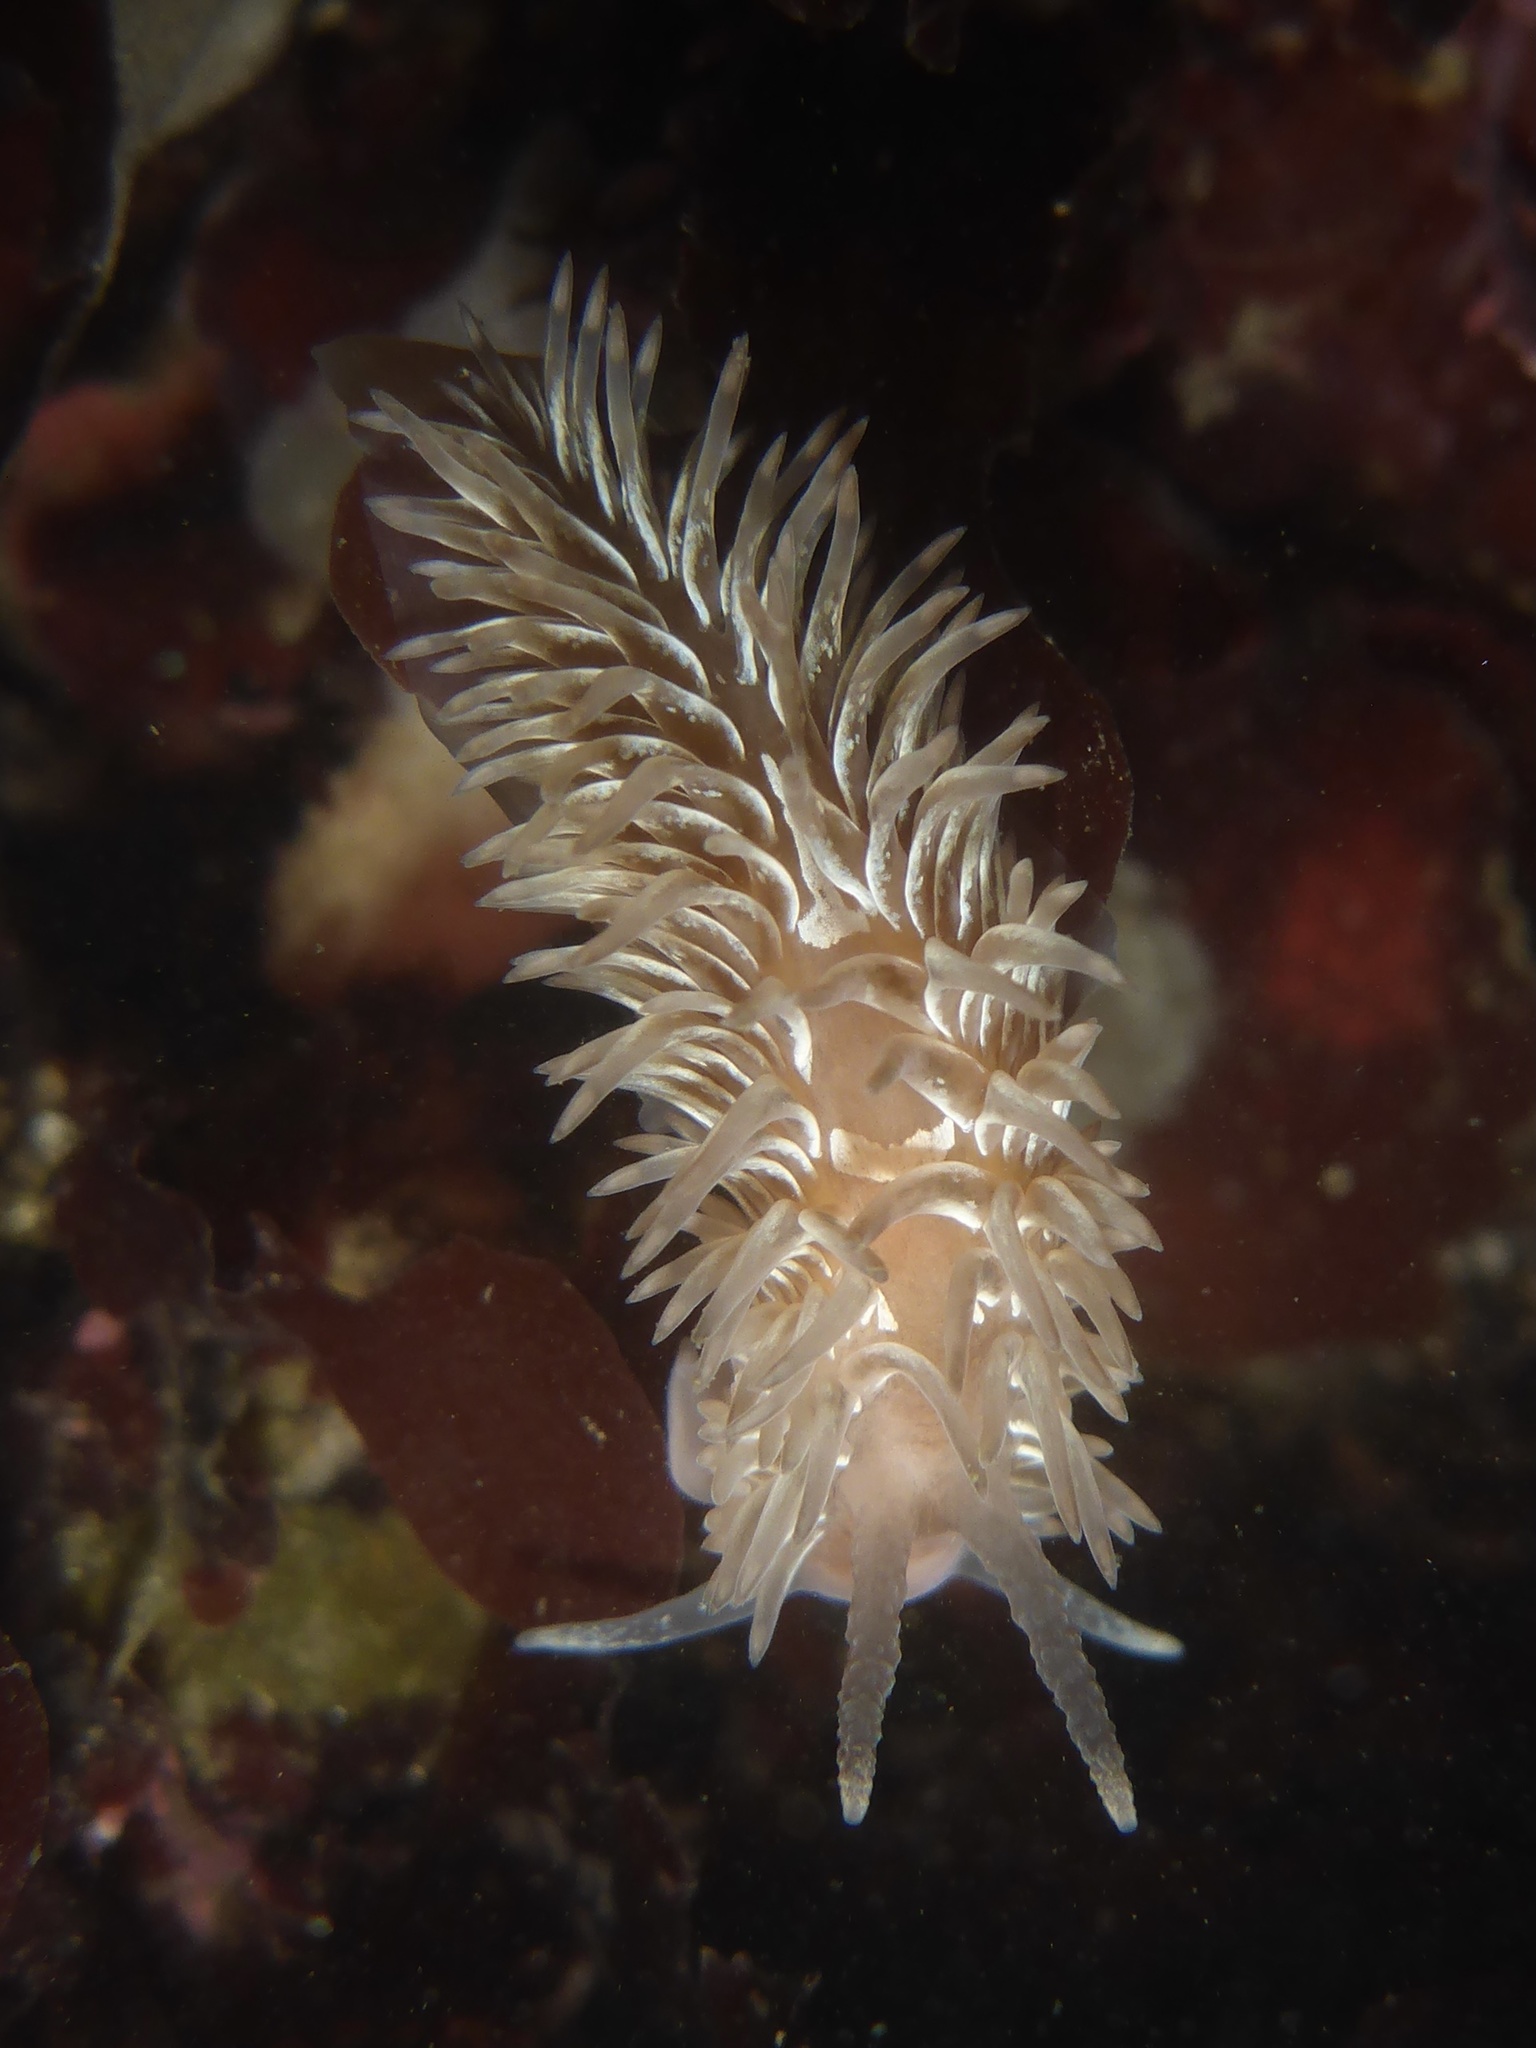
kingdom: Animalia
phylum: Mollusca
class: Gastropoda
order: Nudibranchia
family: Aeolidiidae
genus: Aeolidia
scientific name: Aeolidia loui
